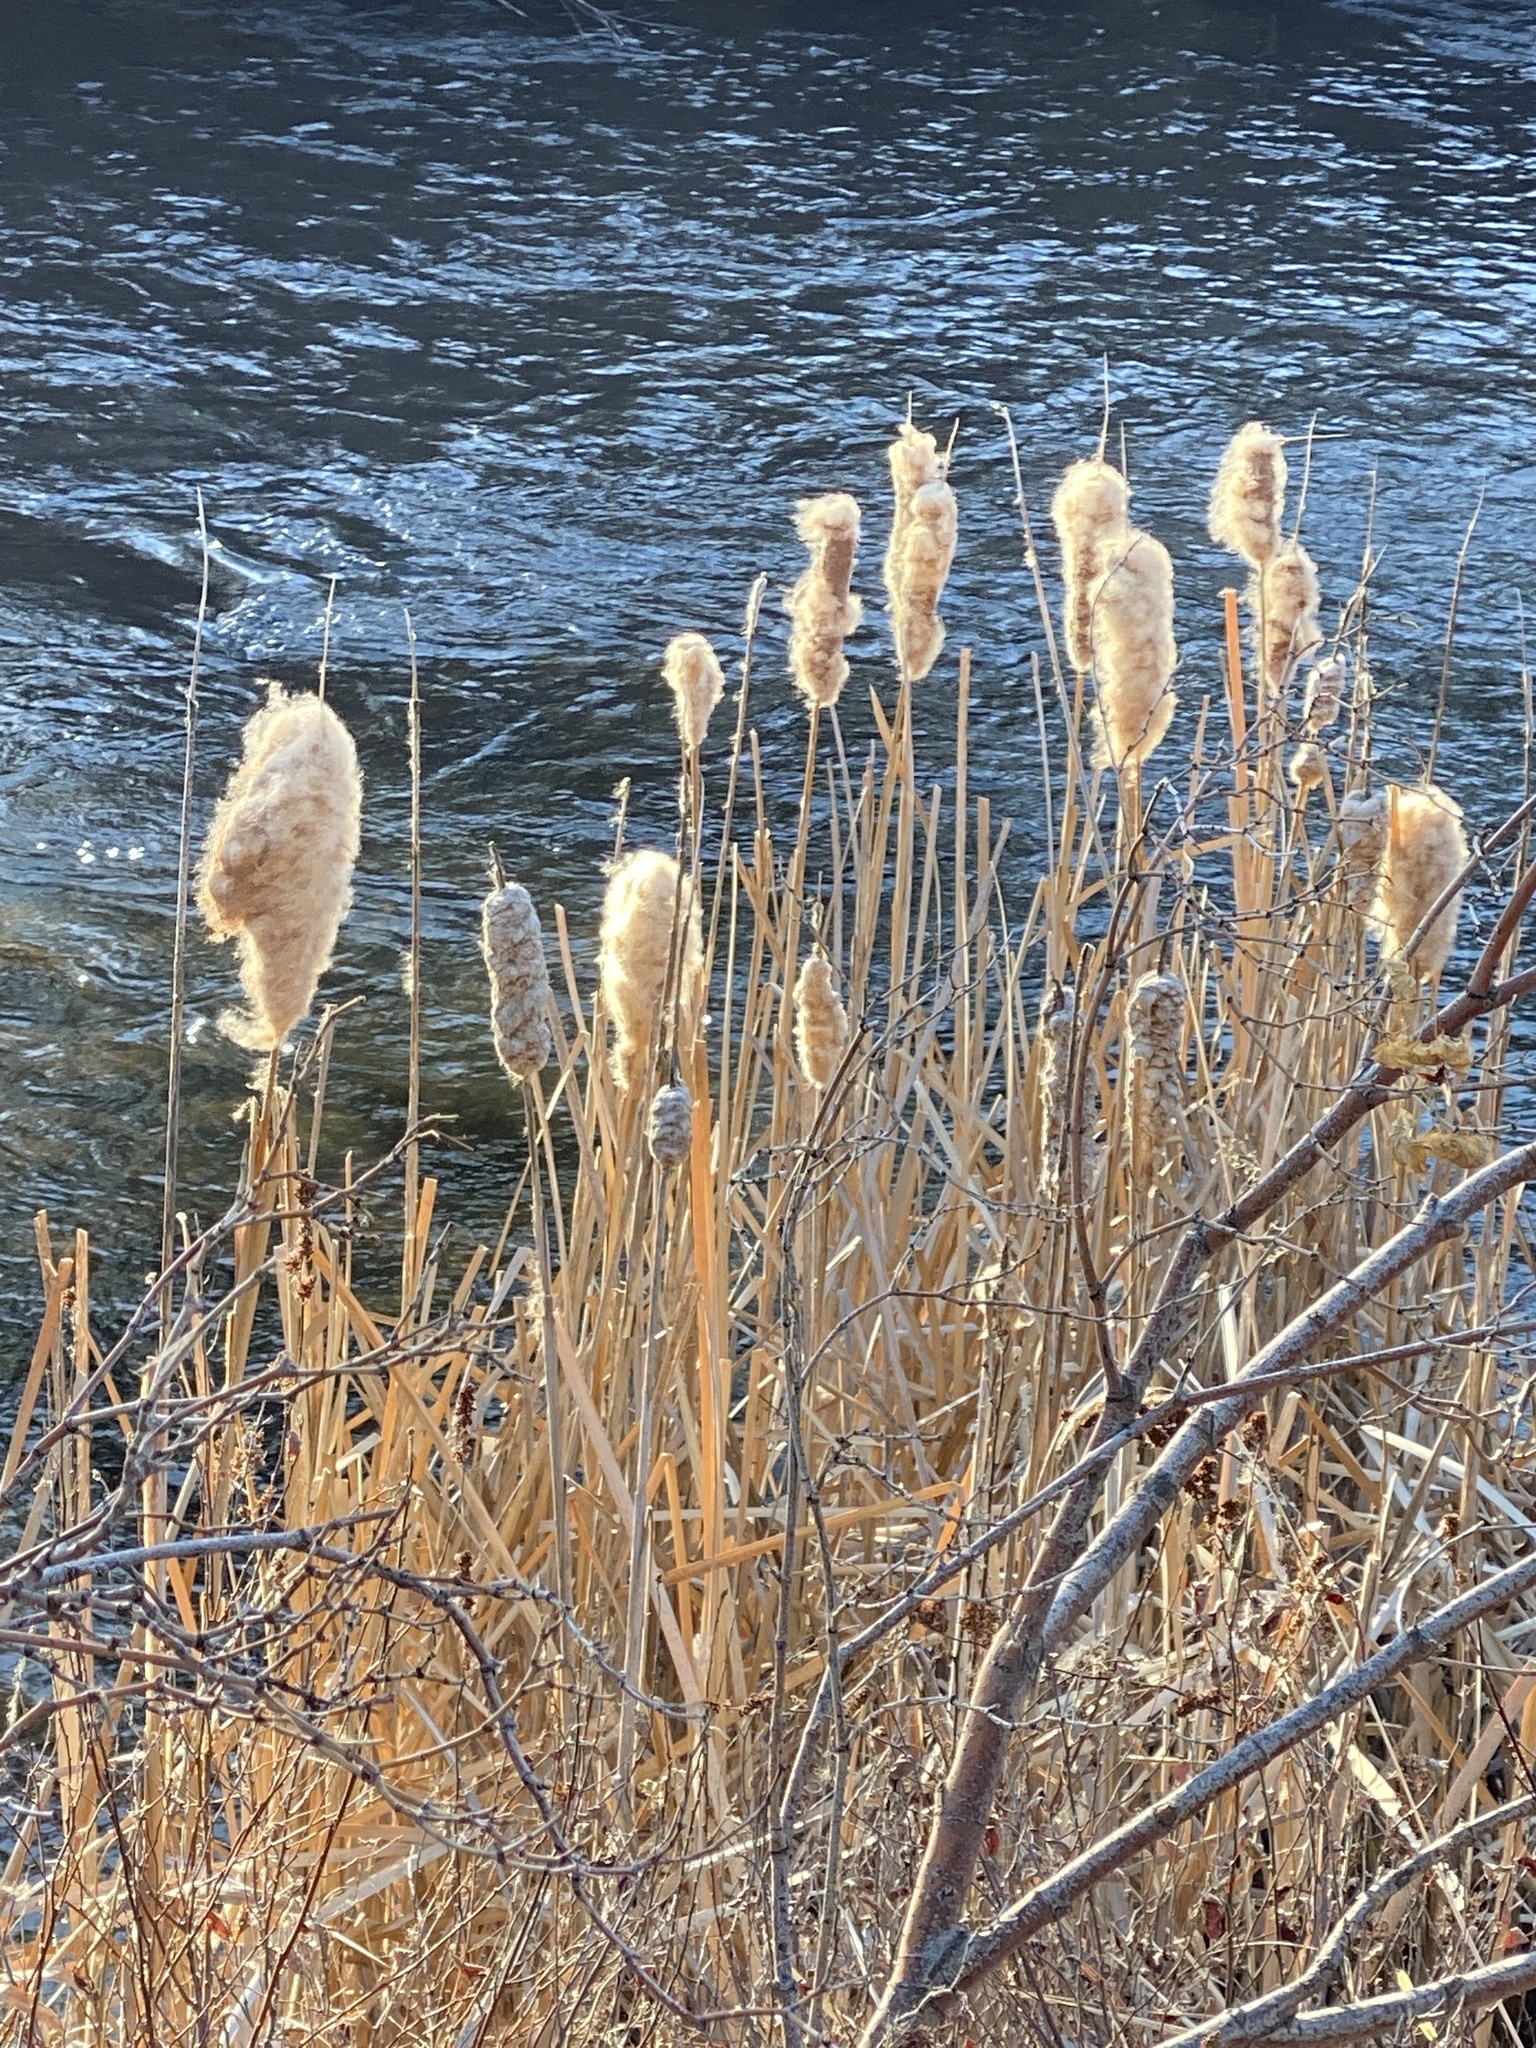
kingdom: Plantae
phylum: Tracheophyta
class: Liliopsida
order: Poales
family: Typhaceae
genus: Typha
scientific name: Typha latifolia
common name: Broadleaf cattail
